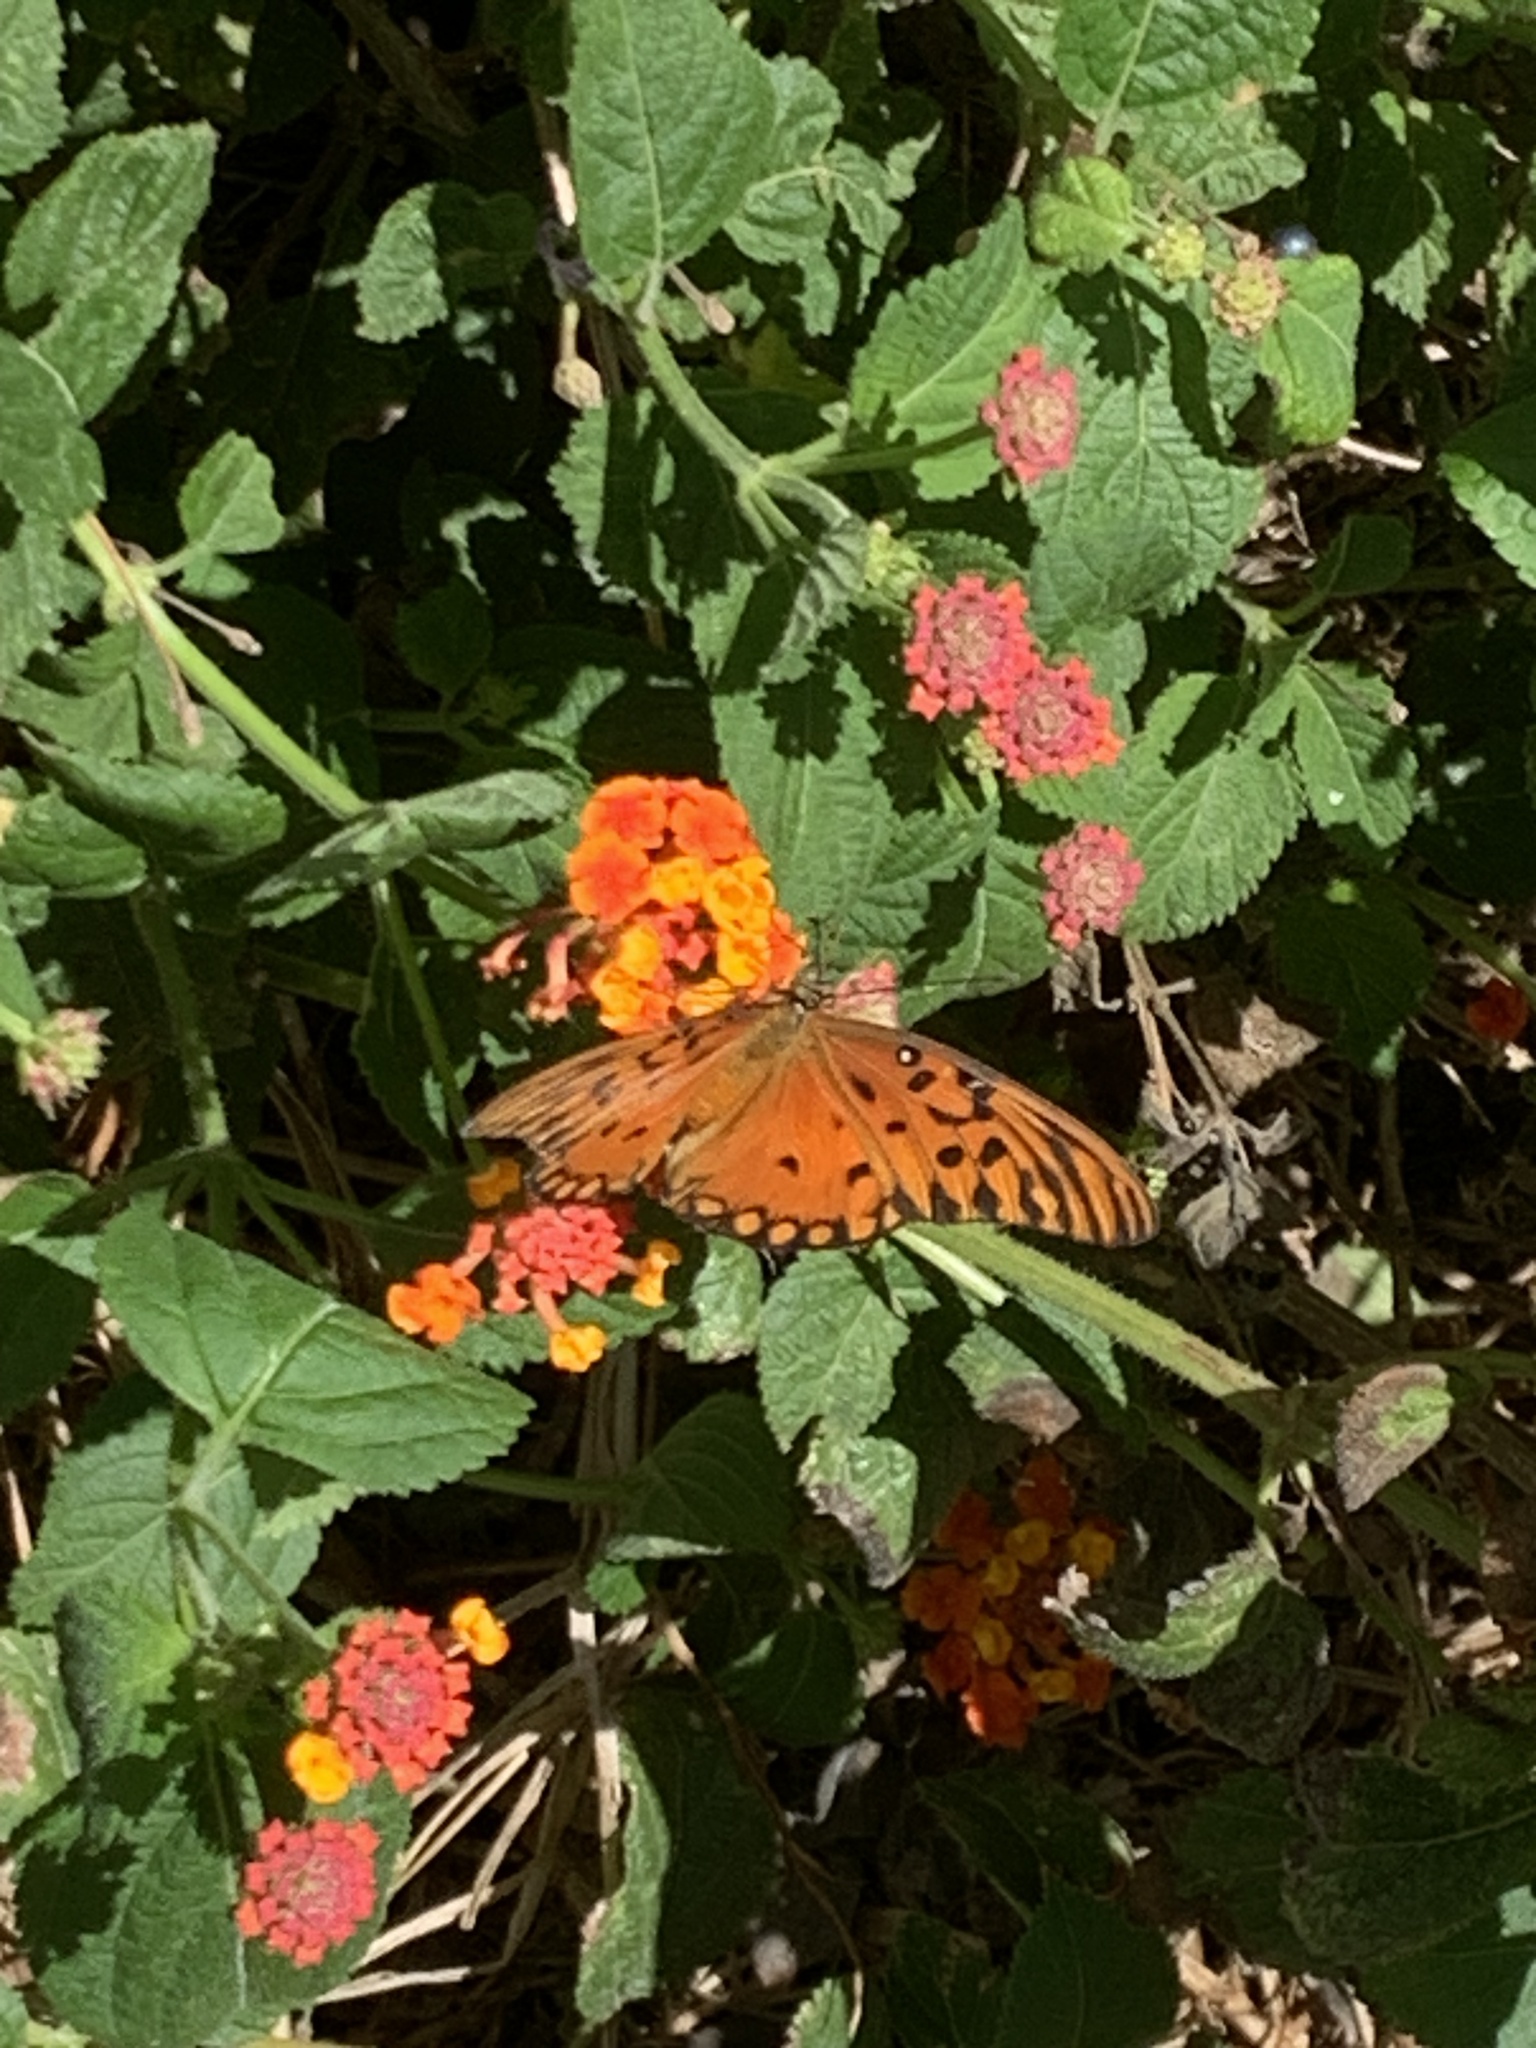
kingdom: Animalia
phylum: Arthropoda
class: Insecta
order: Lepidoptera
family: Nymphalidae
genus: Dione
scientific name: Dione vanillae
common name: Gulf fritillary
